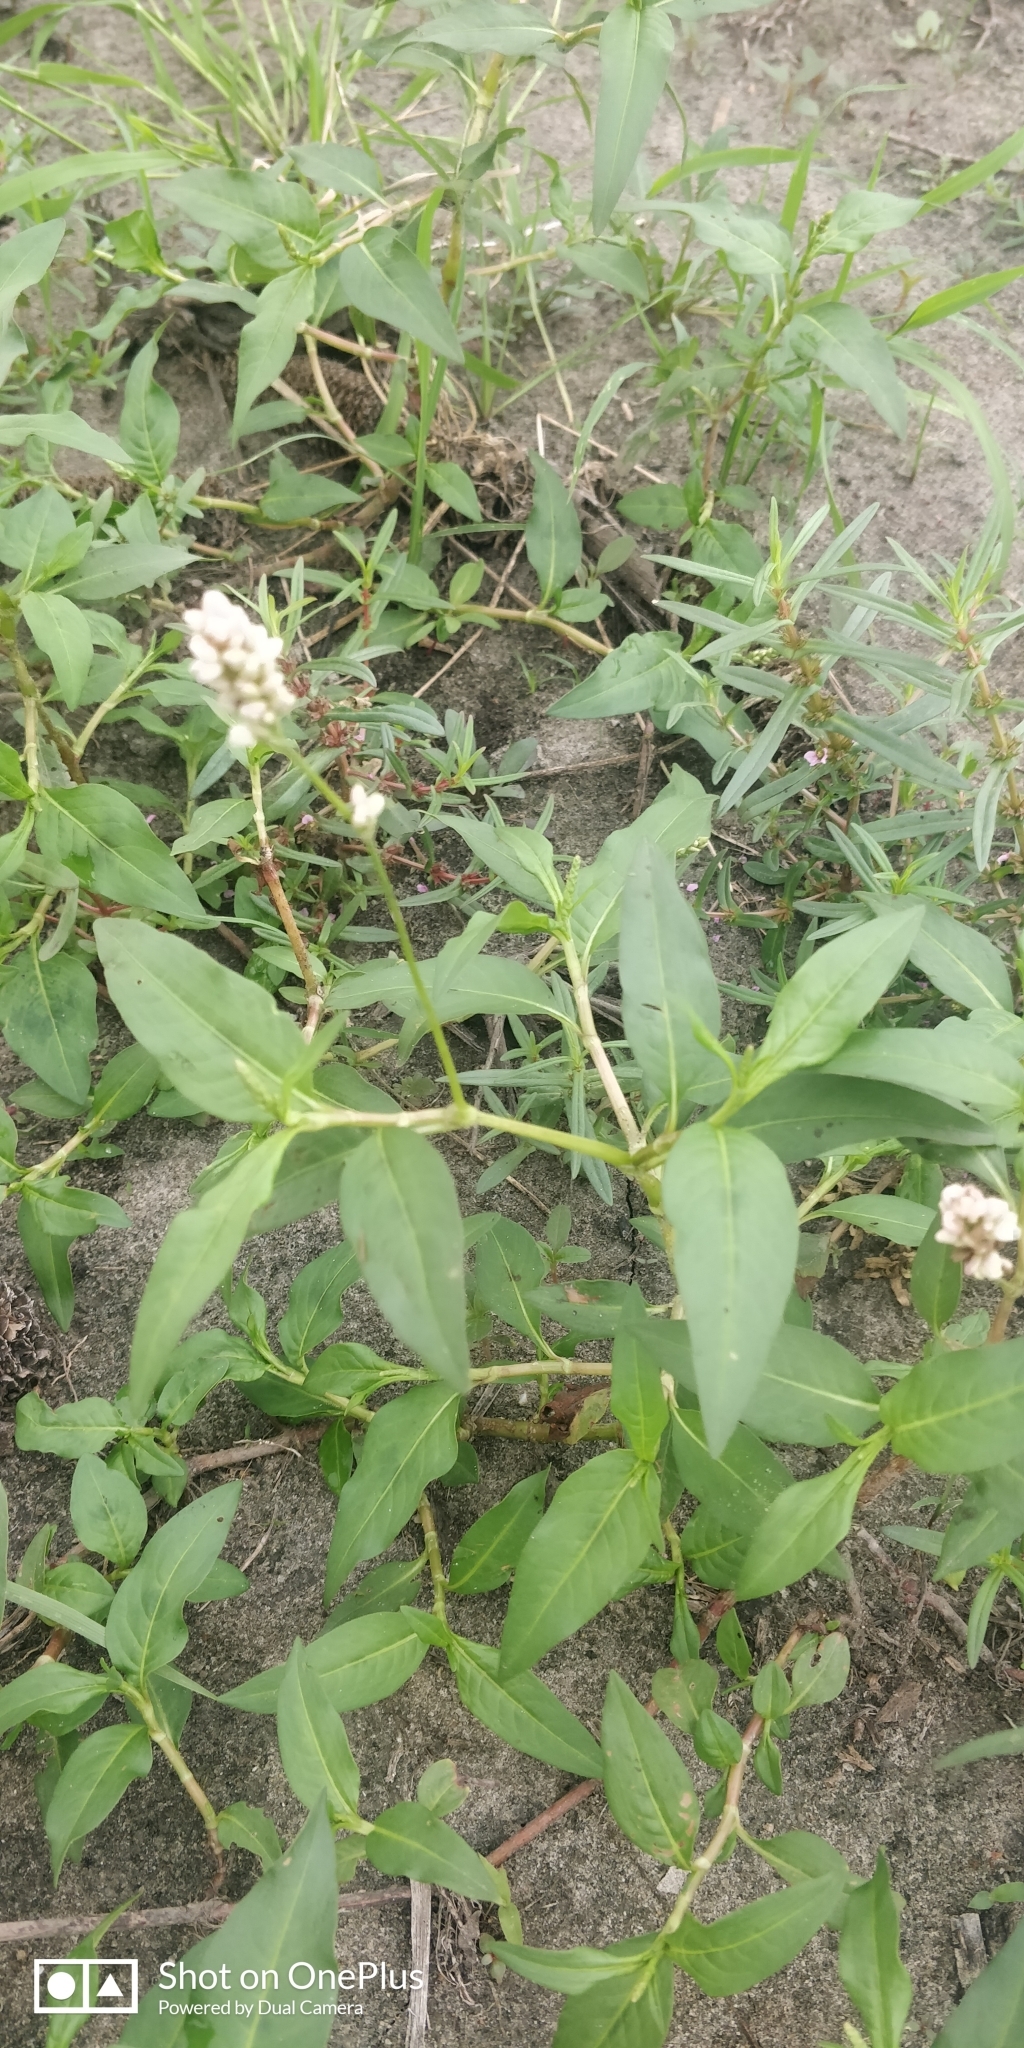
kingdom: Plantae
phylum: Tracheophyta
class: Magnoliopsida
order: Caryophyllales
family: Polygonaceae
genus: Persicaria
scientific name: Persicaria pensylvanica
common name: Pinkweed
